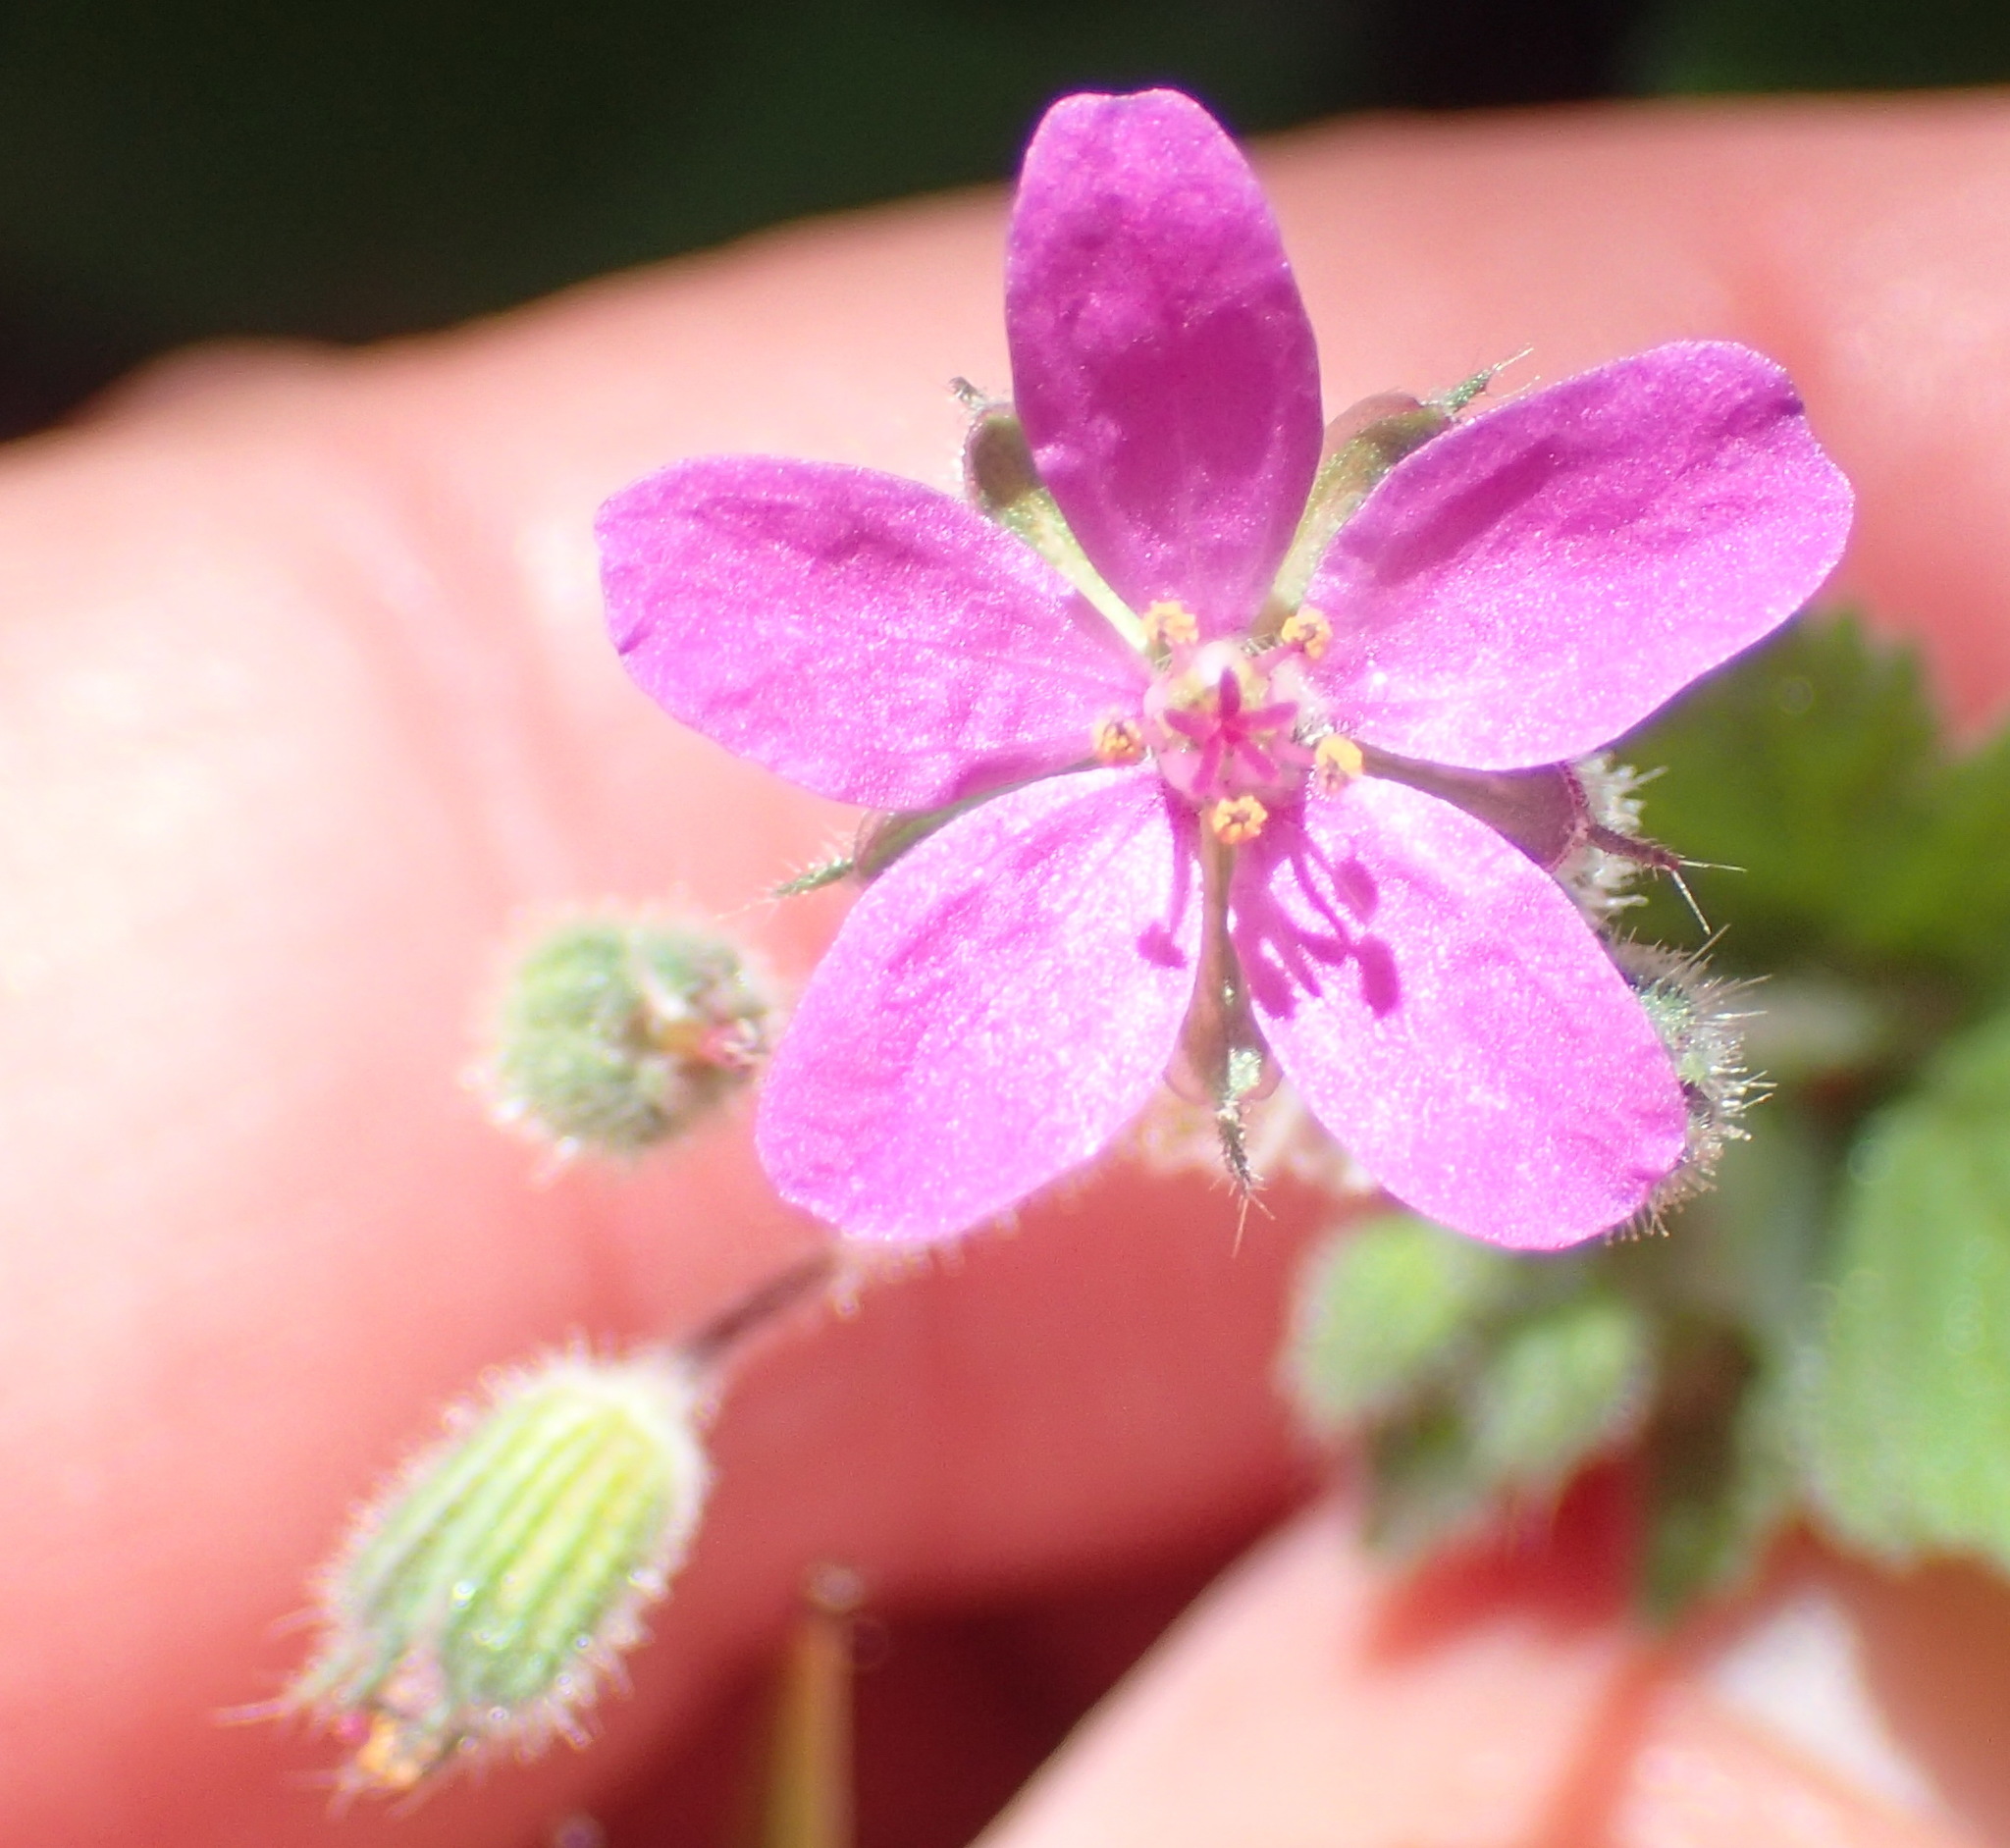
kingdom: Plantae
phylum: Tracheophyta
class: Magnoliopsida
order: Geraniales
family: Geraniaceae
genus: Erodium
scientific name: Erodium malacoides
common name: Soft stork's-bill
